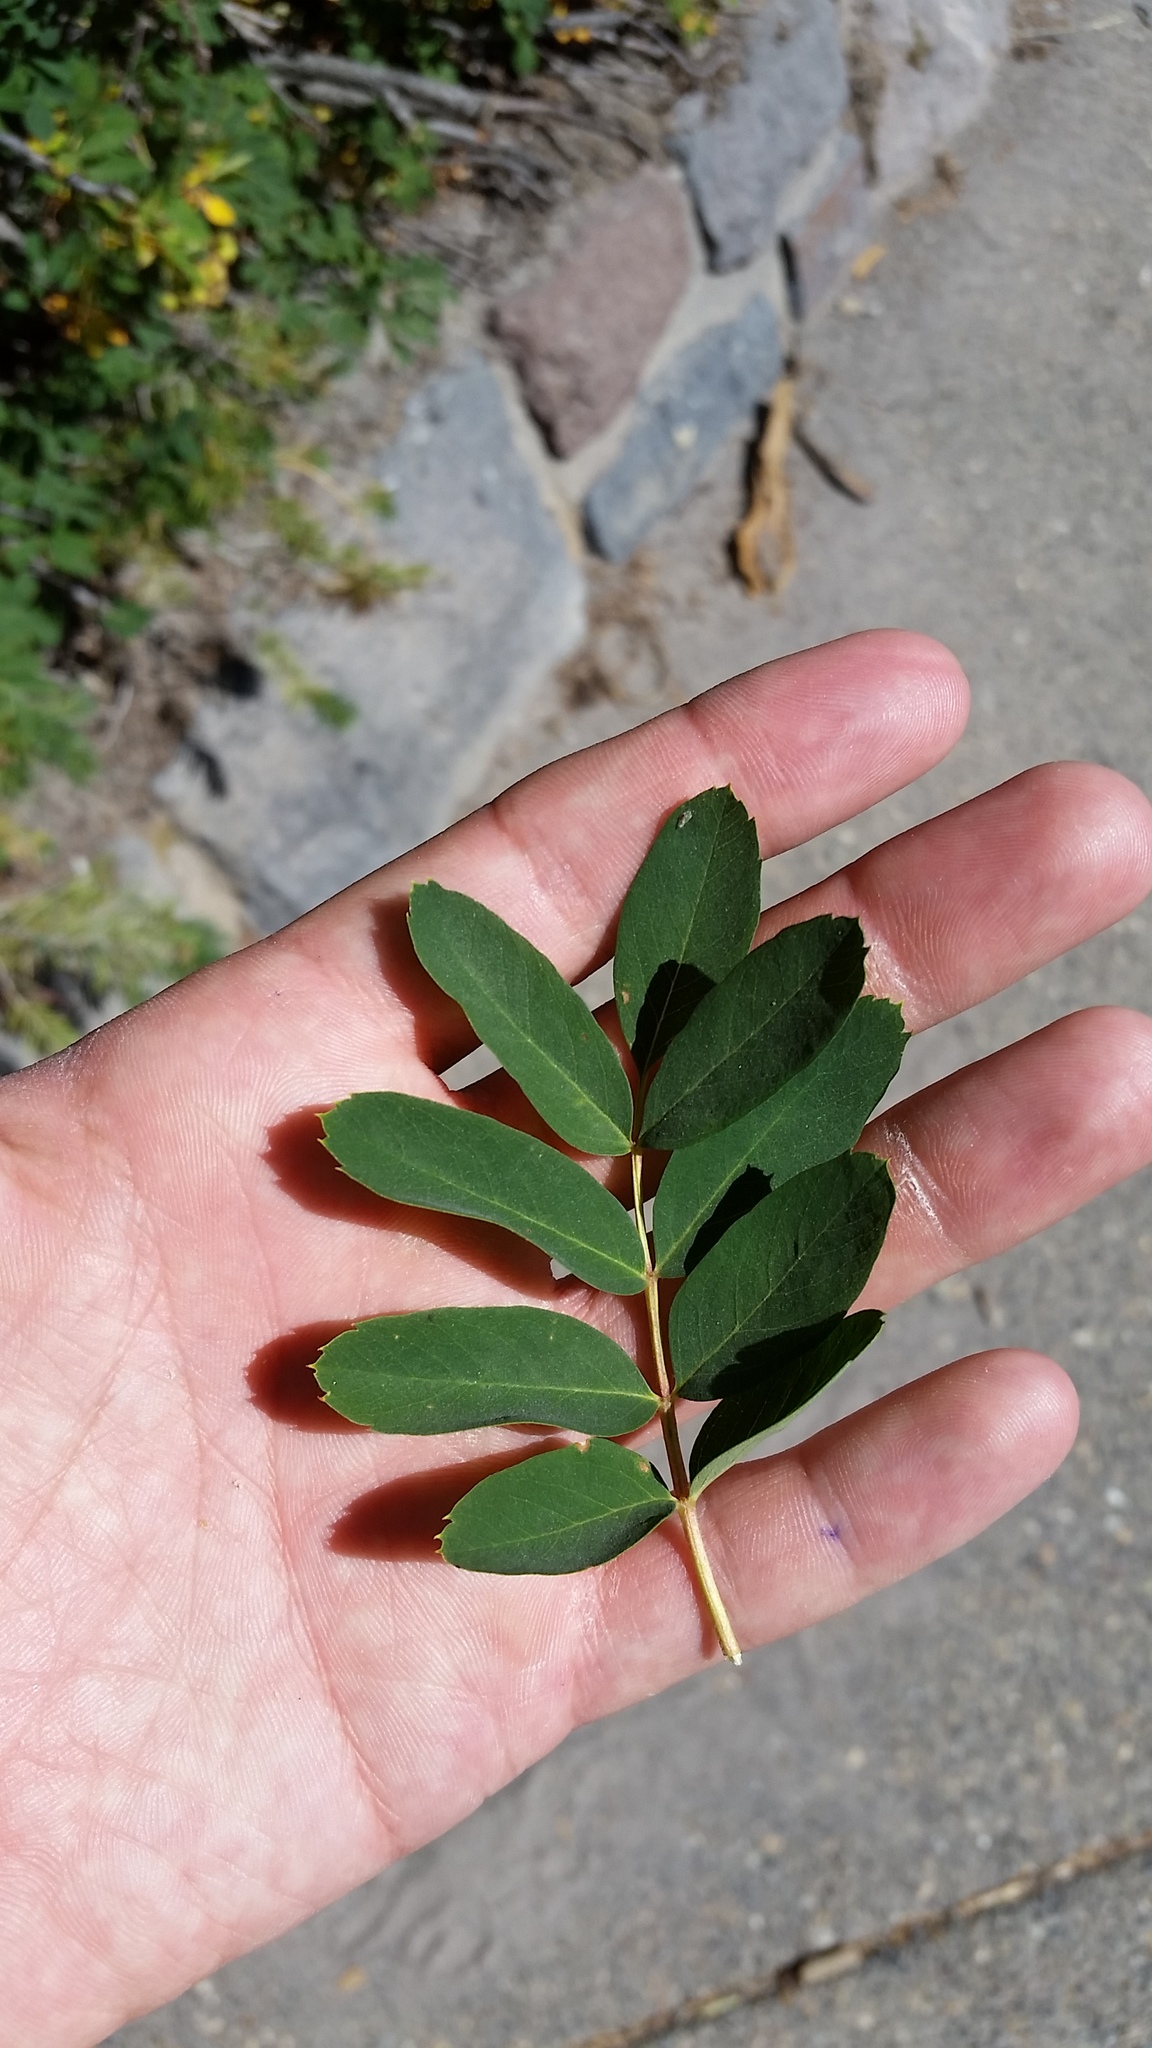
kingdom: Plantae
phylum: Tracheophyta
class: Magnoliopsida
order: Rosales
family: Rosaceae
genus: Sorbus
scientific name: Sorbus sitchensis
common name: Sitka mountain-ash
